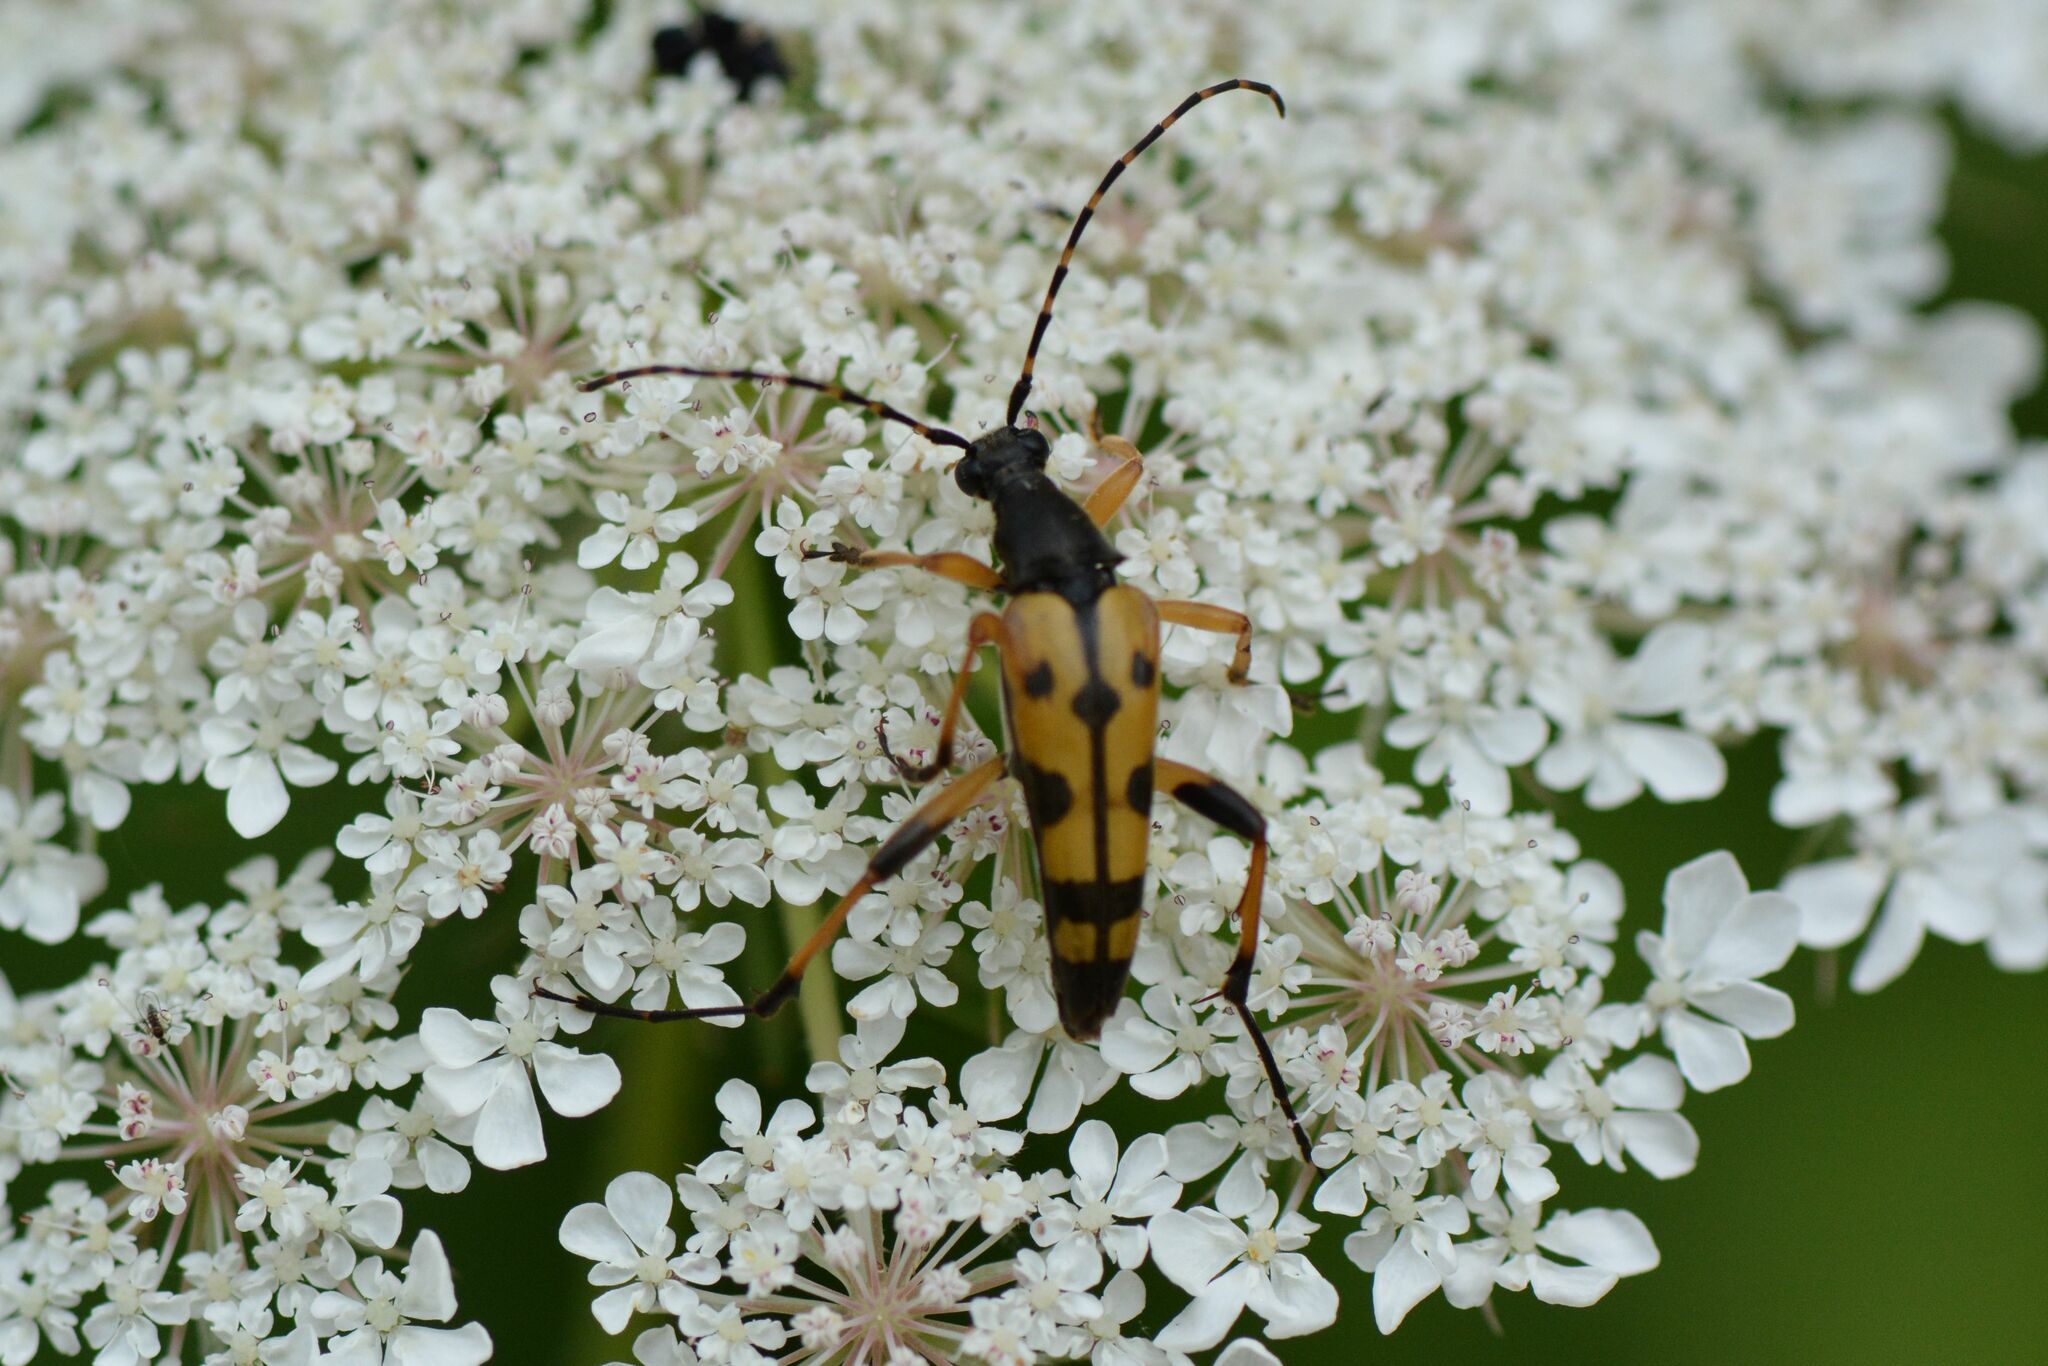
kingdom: Animalia
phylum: Arthropoda
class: Insecta
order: Coleoptera
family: Cerambycidae
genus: Rutpela
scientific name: Rutpela maculata
